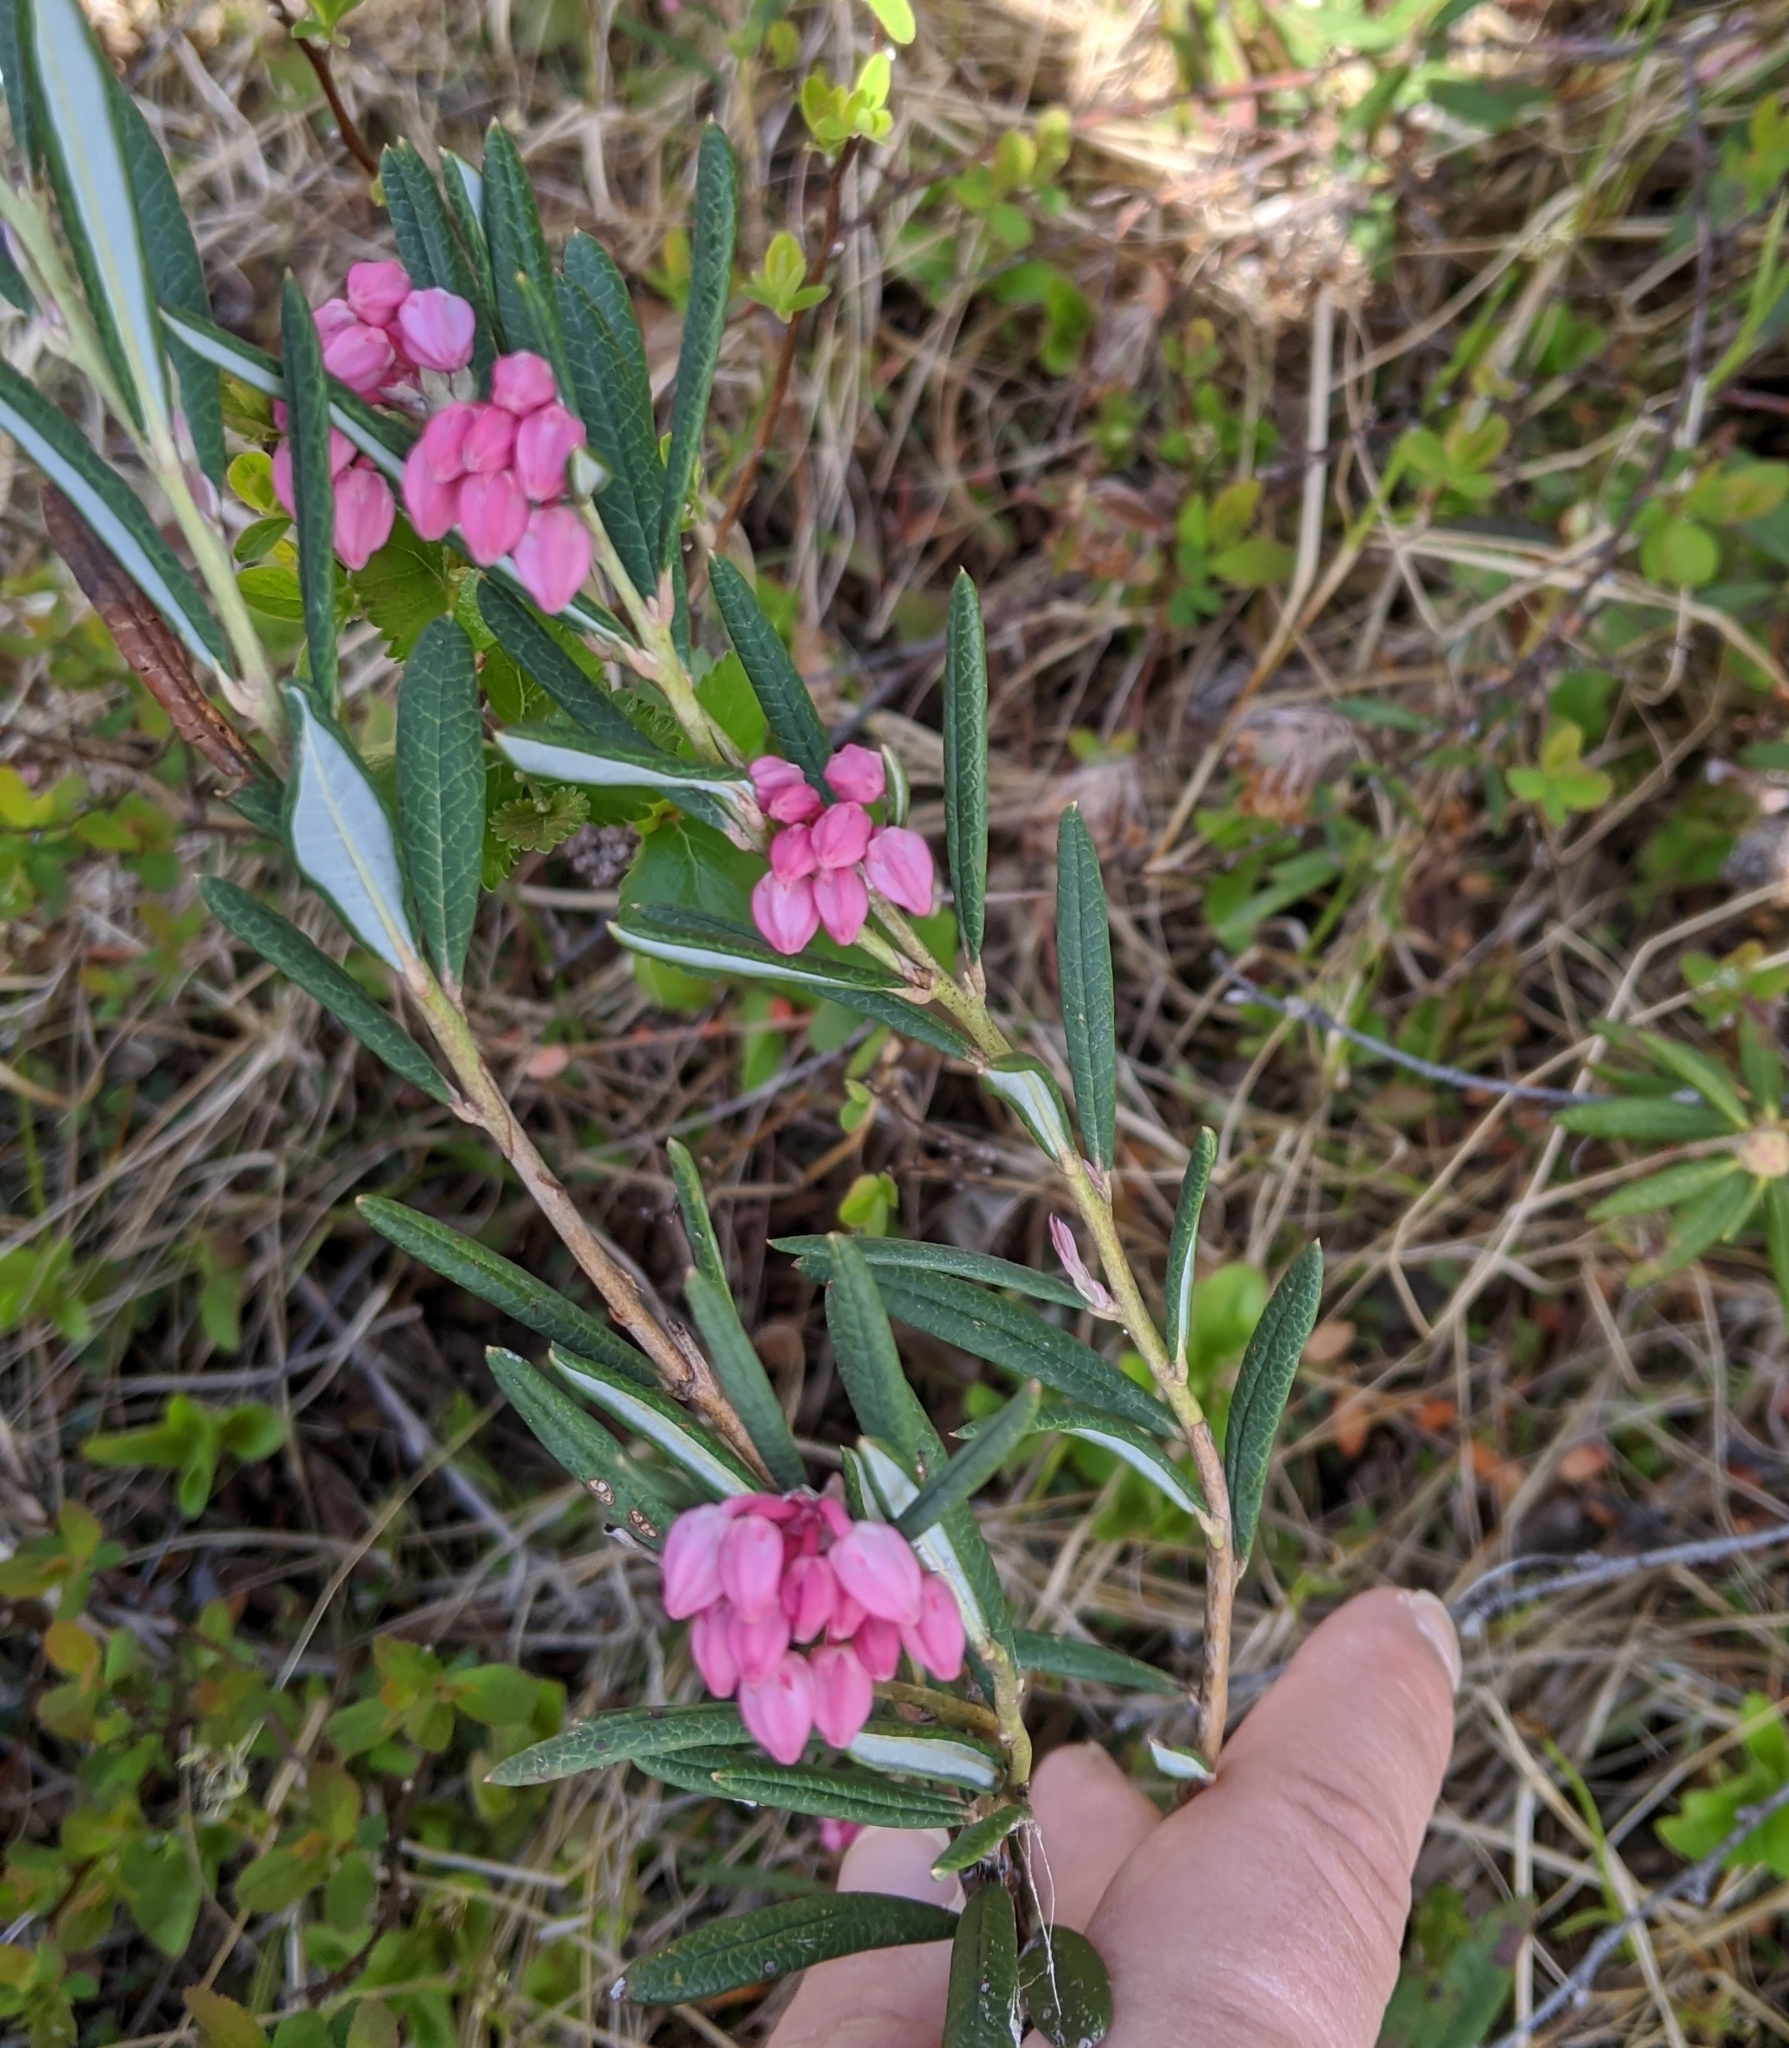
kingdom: Plantae
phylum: Tracheophyta
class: Magnoliopsida
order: Ericales
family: Ericaceae
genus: Andromeda
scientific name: Andromeda polifolia
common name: Bog-rosemary
